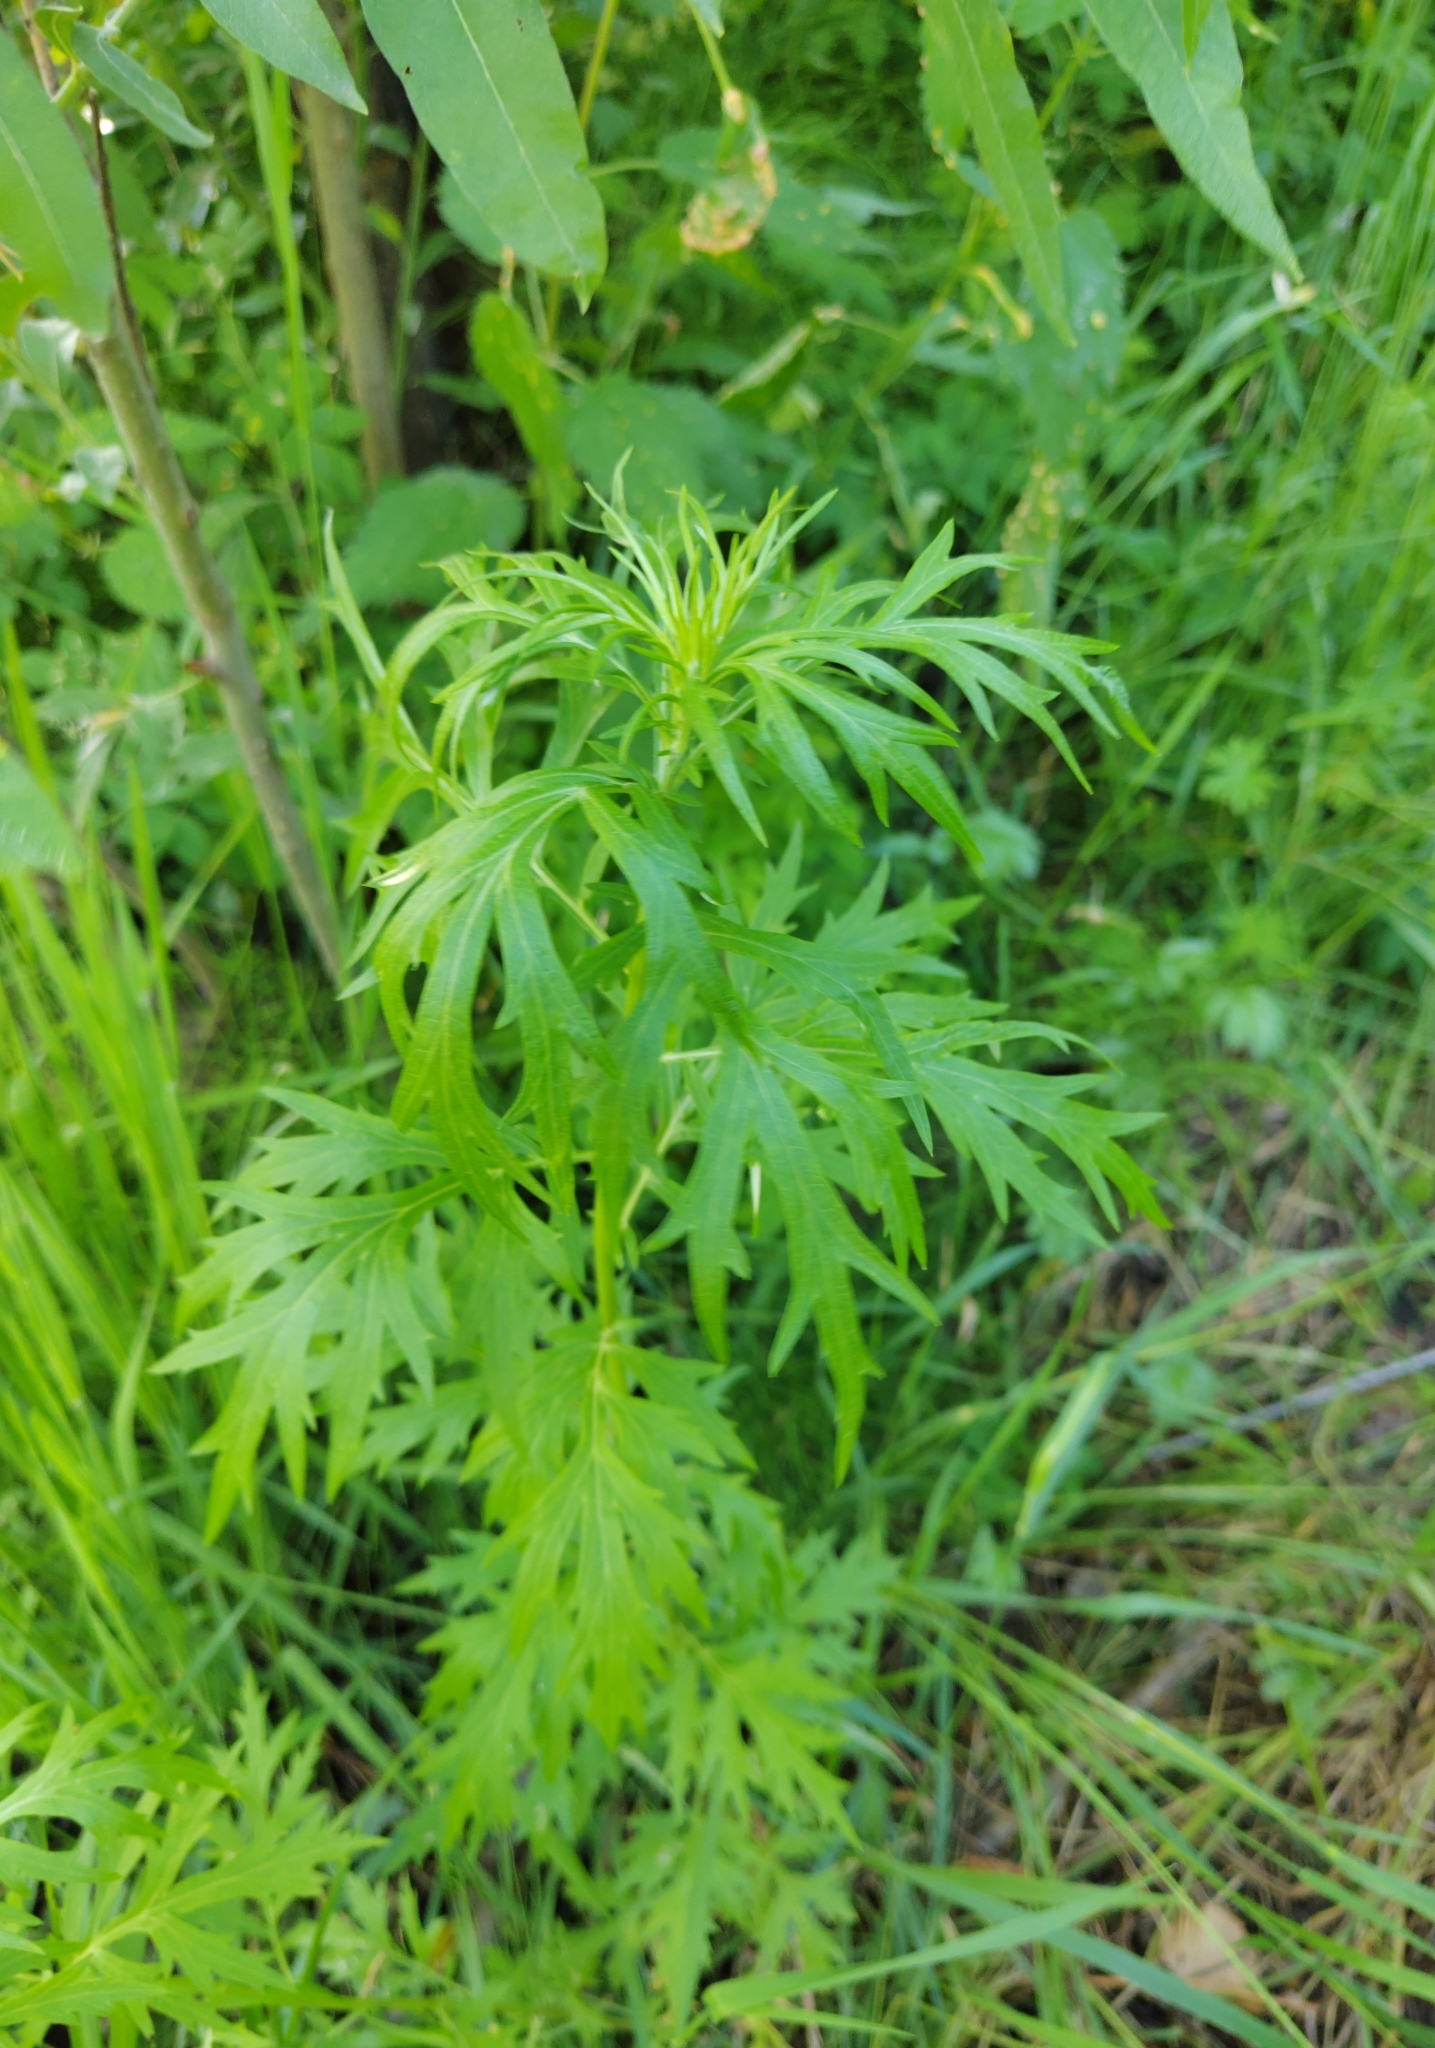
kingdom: Plantae
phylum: Tracheophyta
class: Magnoliopsida
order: Asterales
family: Asteraceae
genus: Artemisia
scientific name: Artemisia vulgaris
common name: Mugwort
